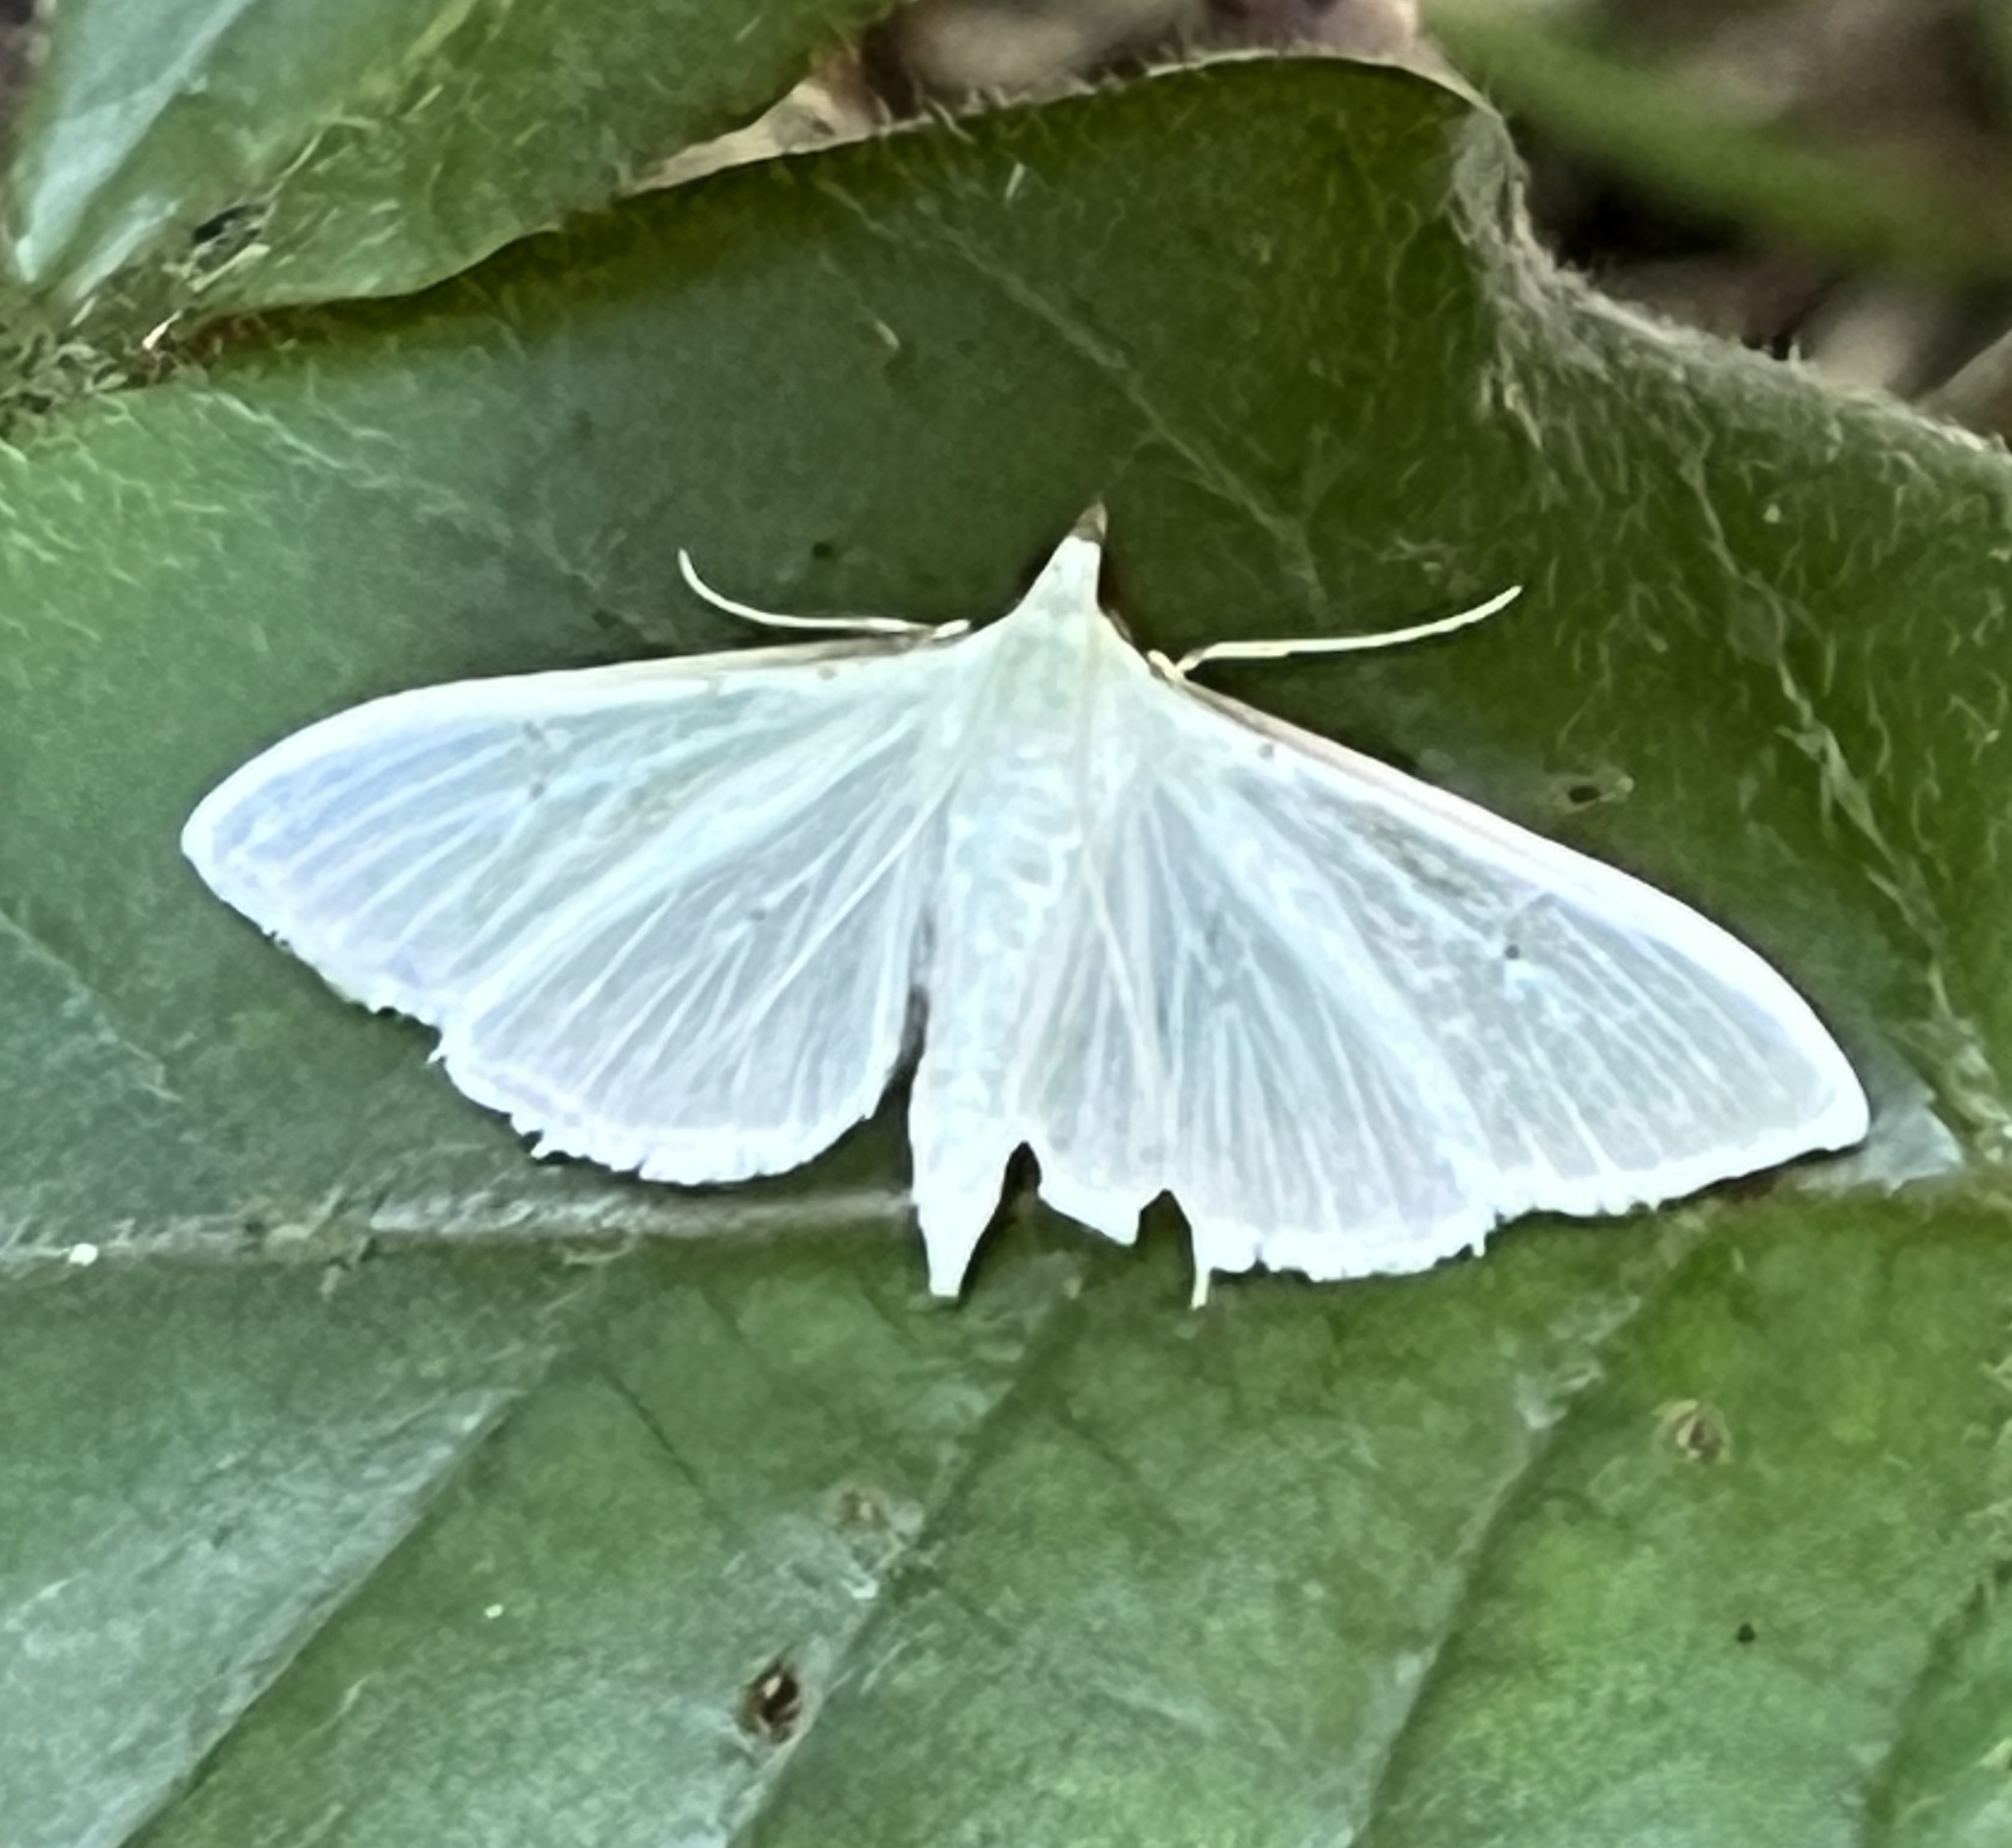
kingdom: Animalia
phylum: Arthropoda
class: Insecta
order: Lepidoptera
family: Crambidae
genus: Palpita
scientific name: Palpita vitrealis
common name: Olive-tree pearl
